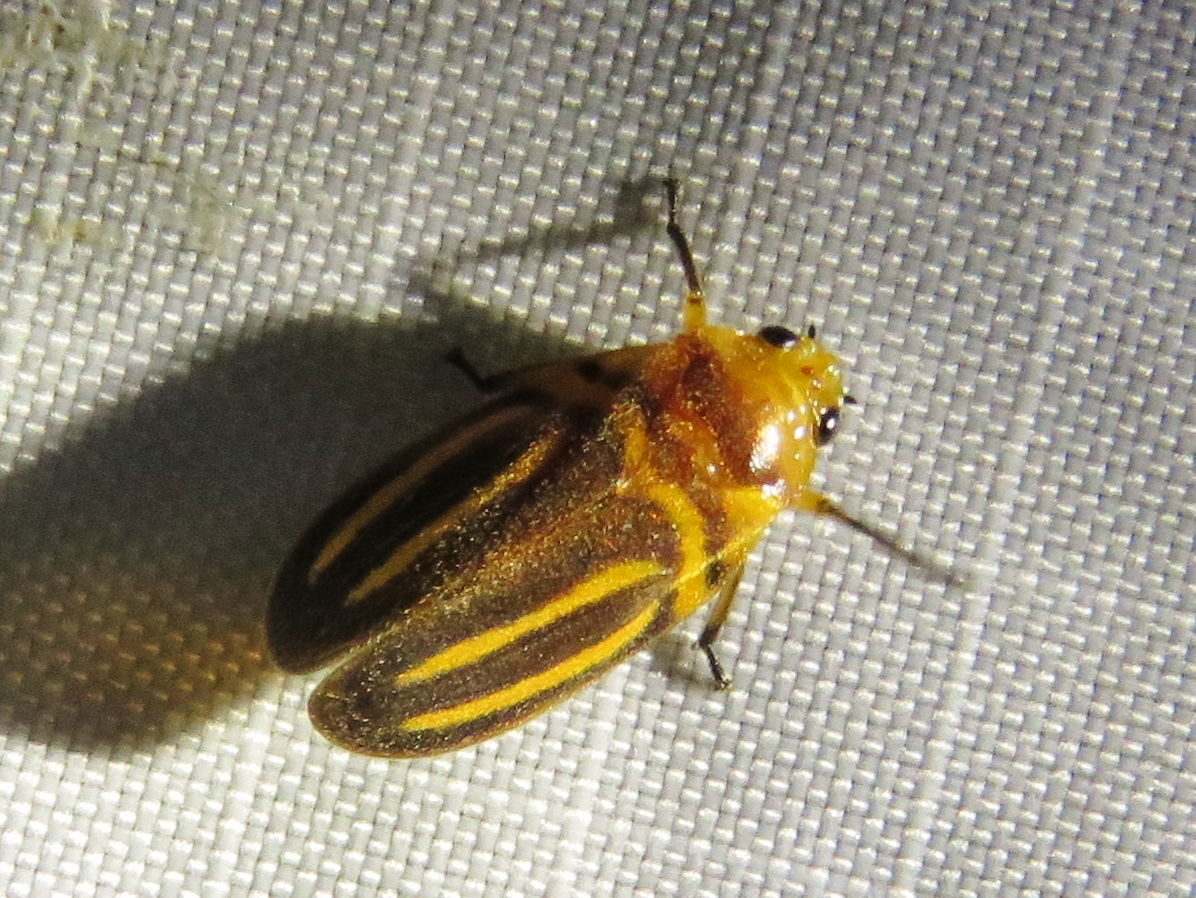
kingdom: Animalia
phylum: Arthropoda
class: Insecta
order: Hemiptera
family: Cercopidae
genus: Ocoaxo
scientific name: Ocoaxo lineatus
